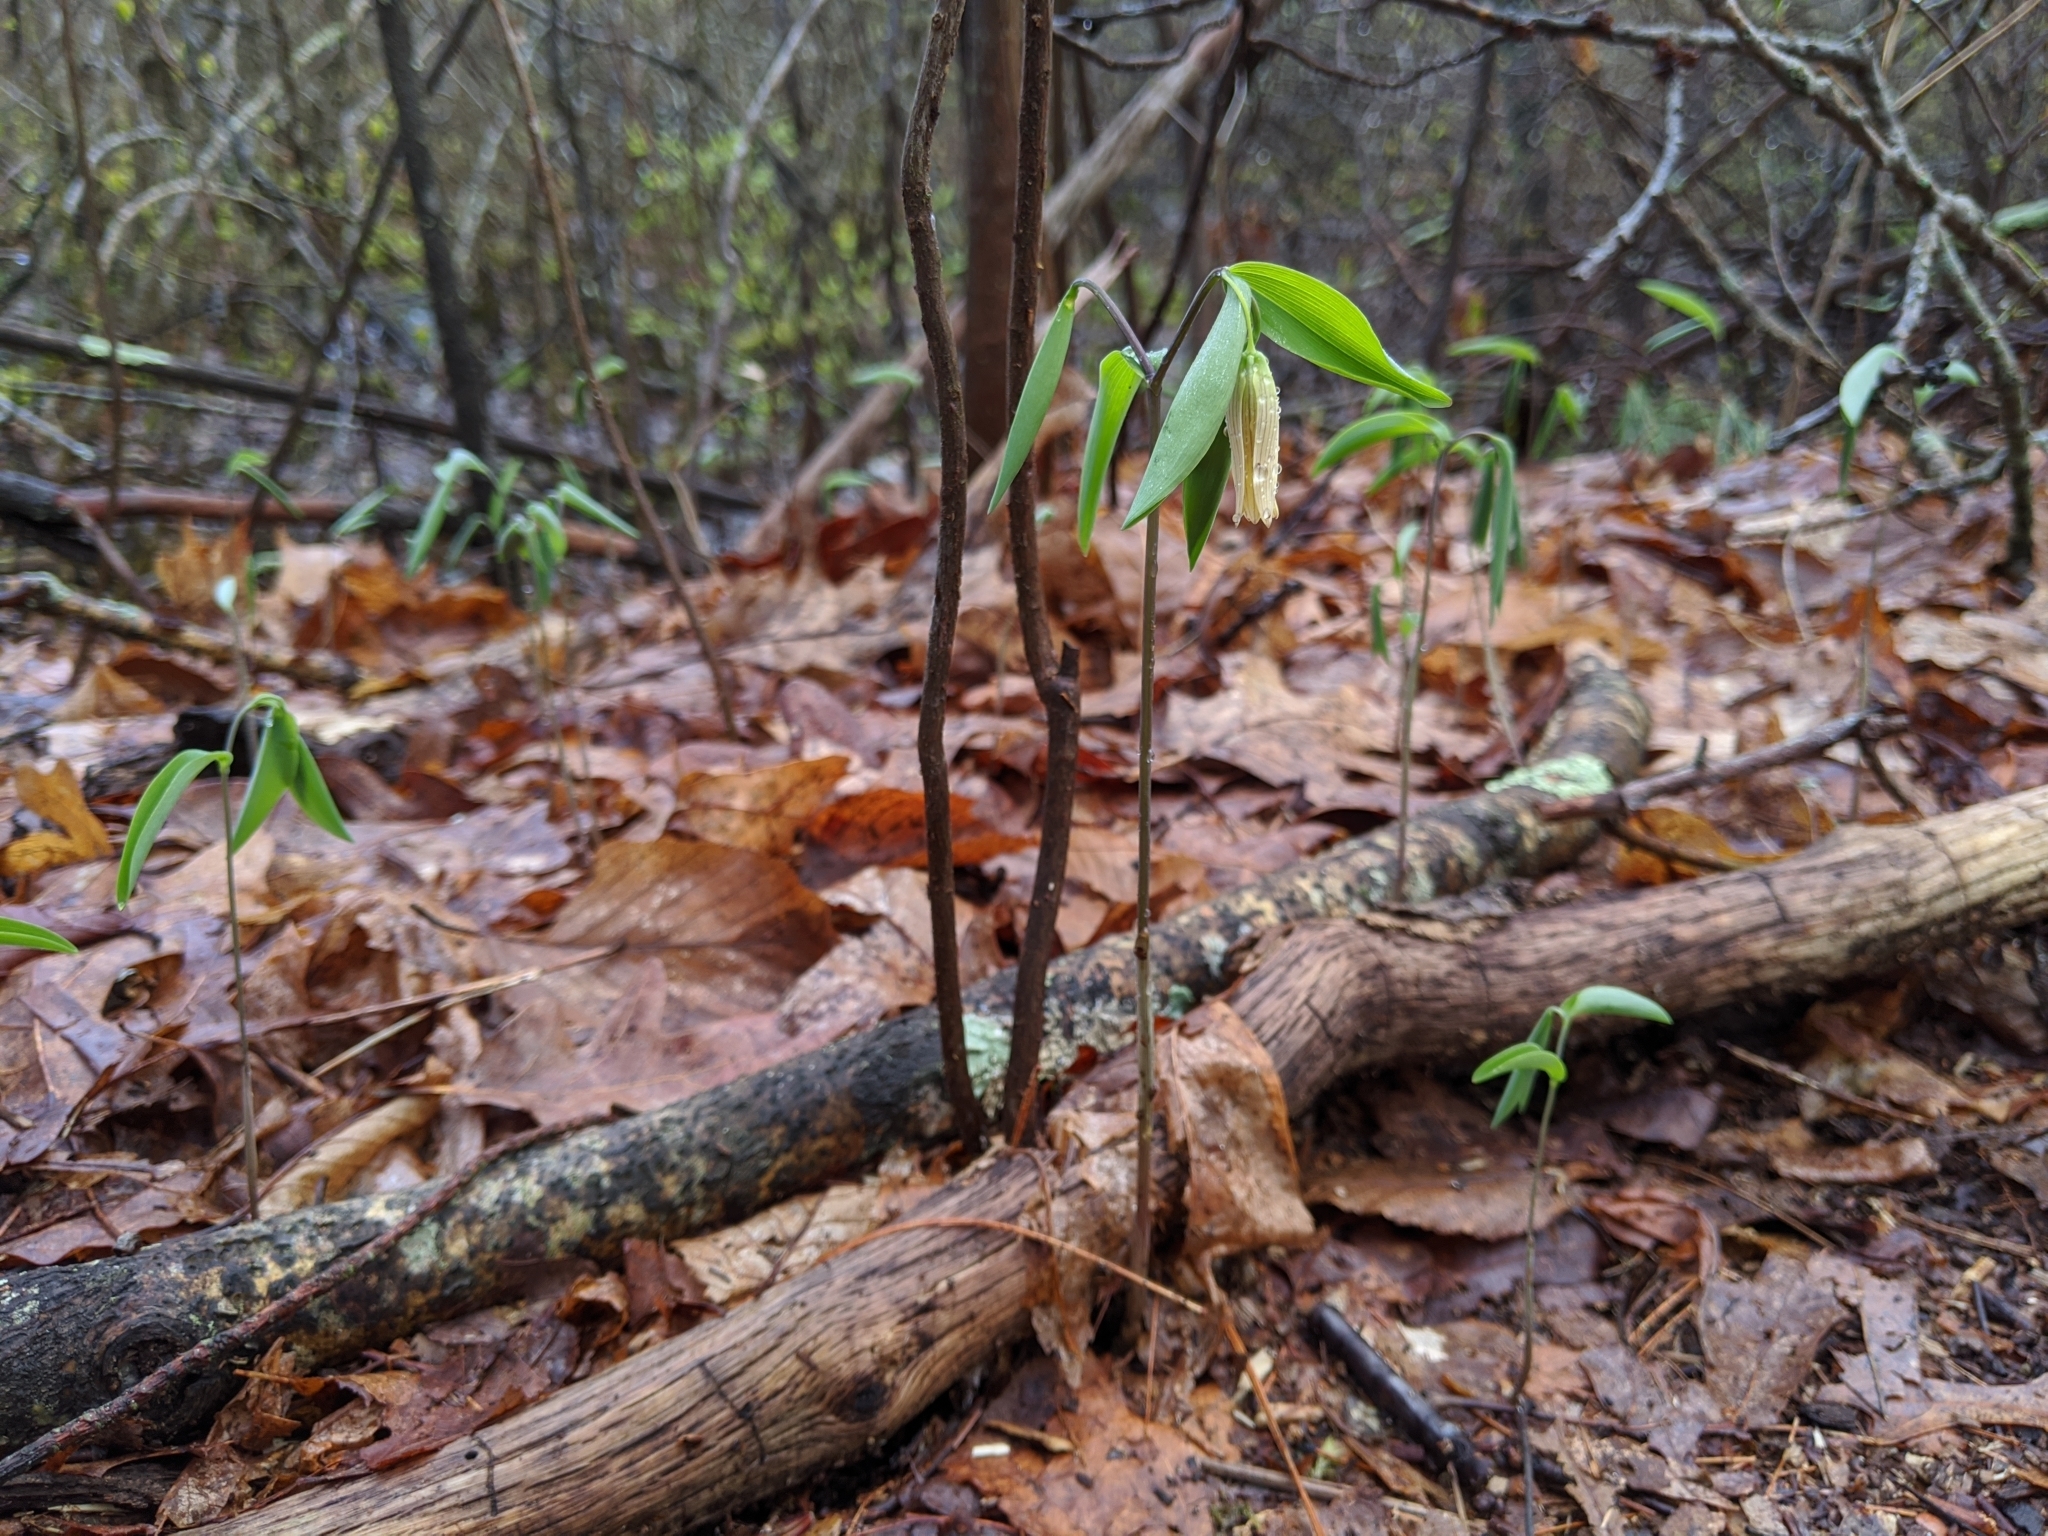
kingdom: Plantae
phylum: Tracheophyta
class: Liliopsida
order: Liliales
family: Colchicaceae
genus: Uvularia
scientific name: Uvularia sessilifolia
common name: Straw-lily
